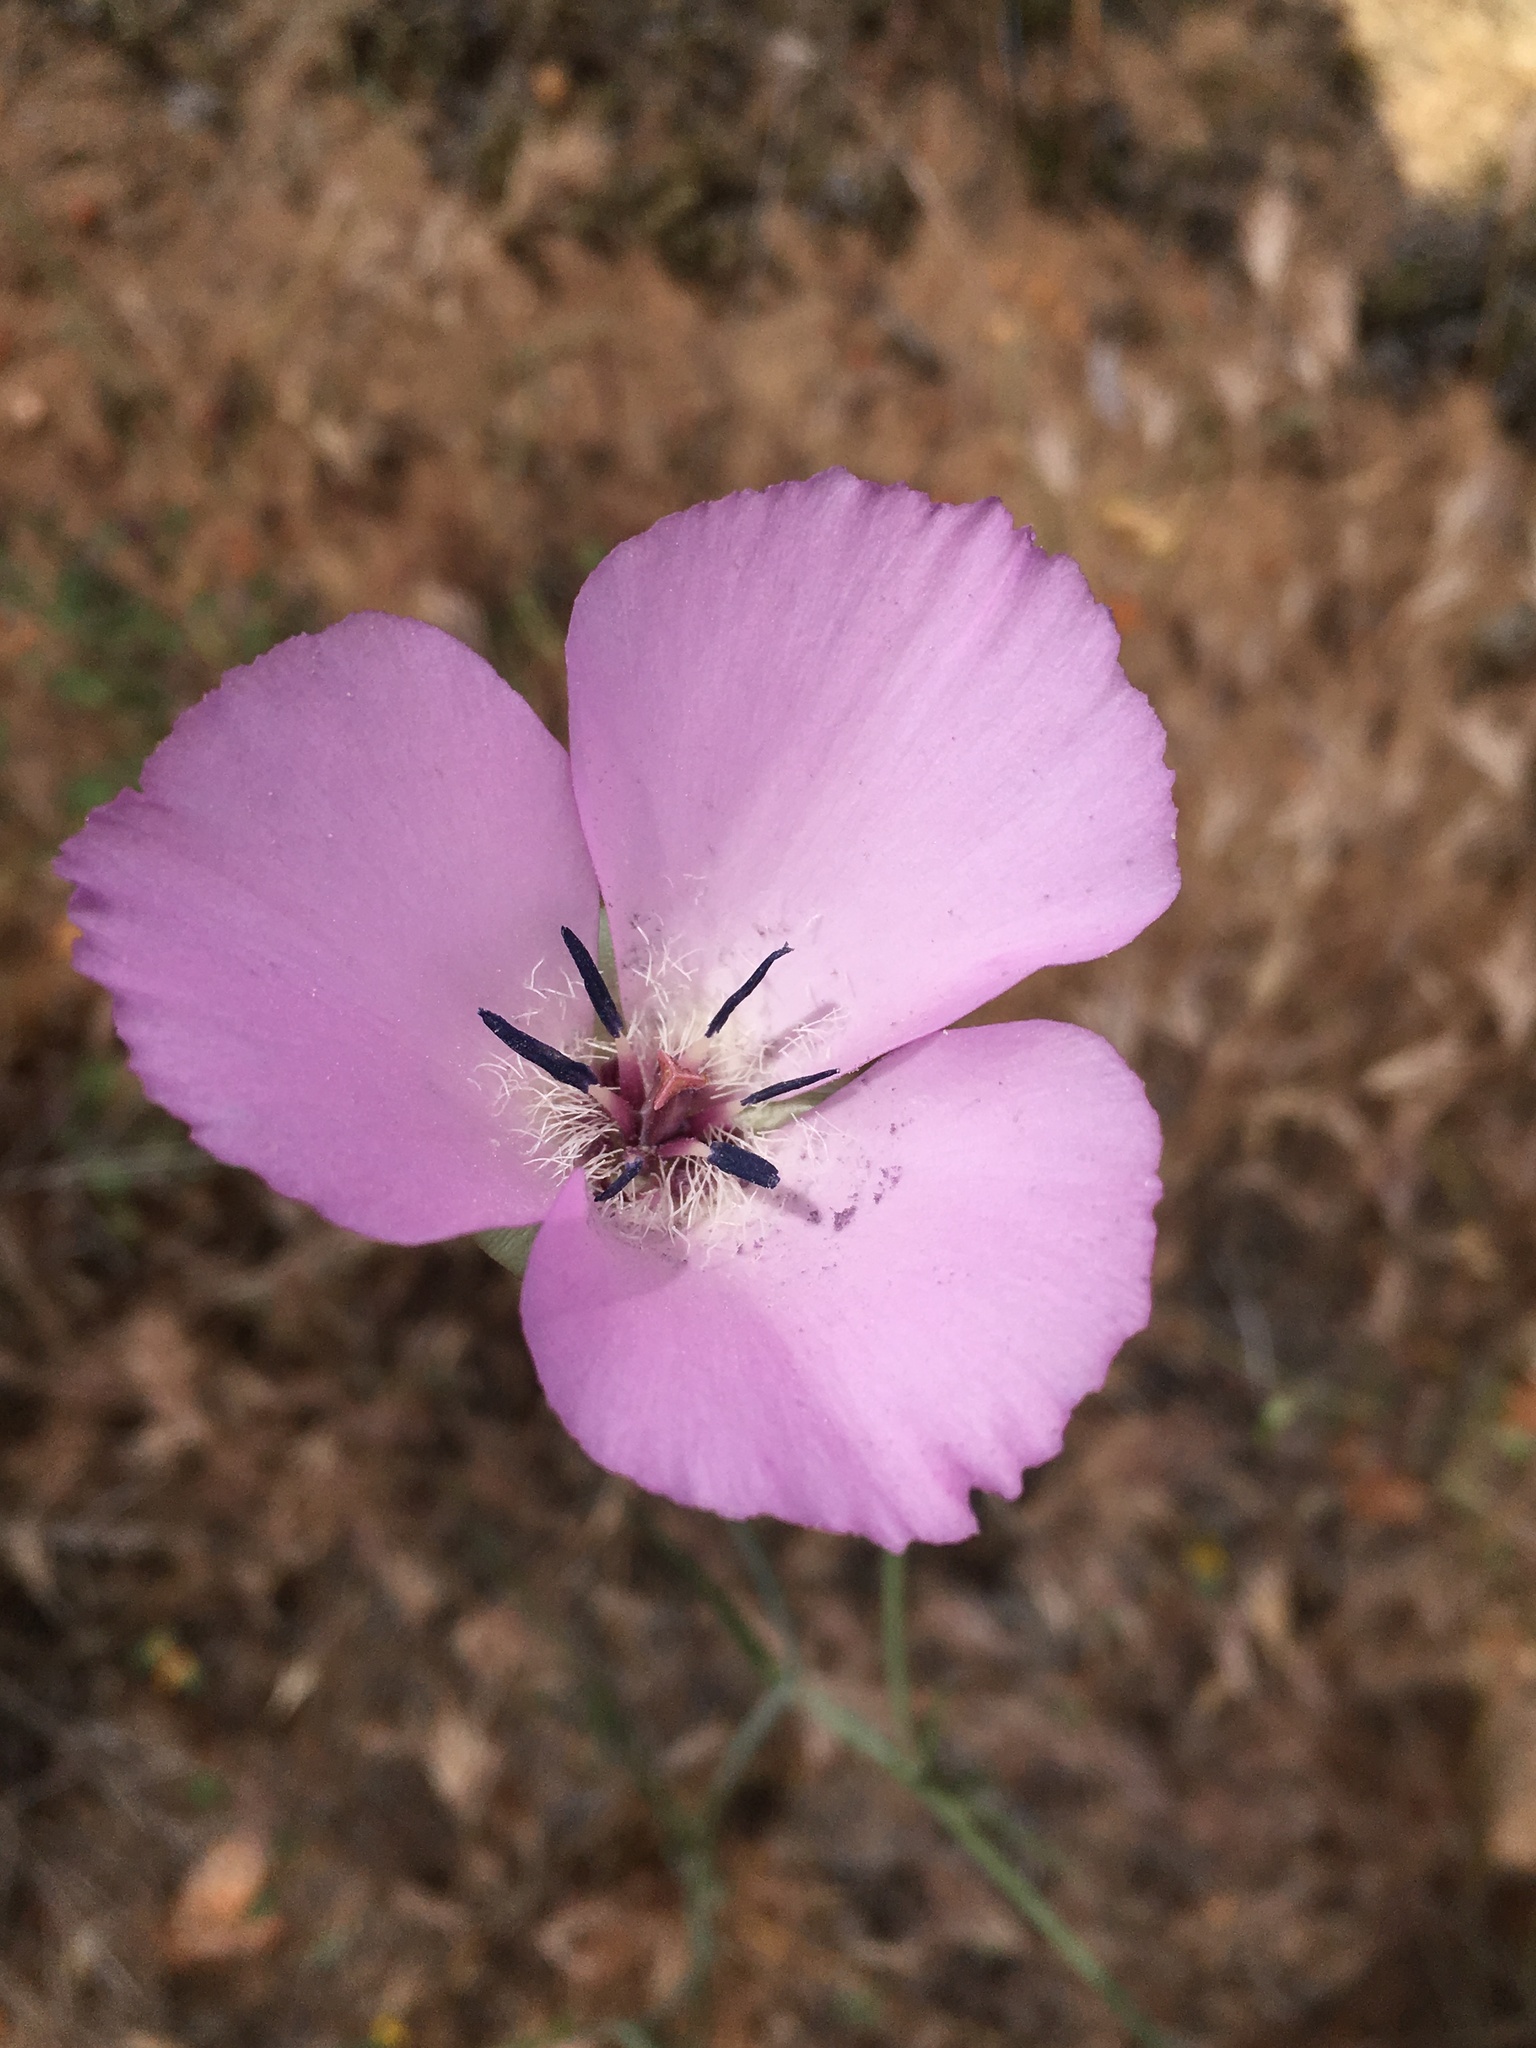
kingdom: Plantae
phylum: Tracheophyta
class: Liliopsida
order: Liliales
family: Liliaceae
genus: Calochortus
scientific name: Calochortus splendens
